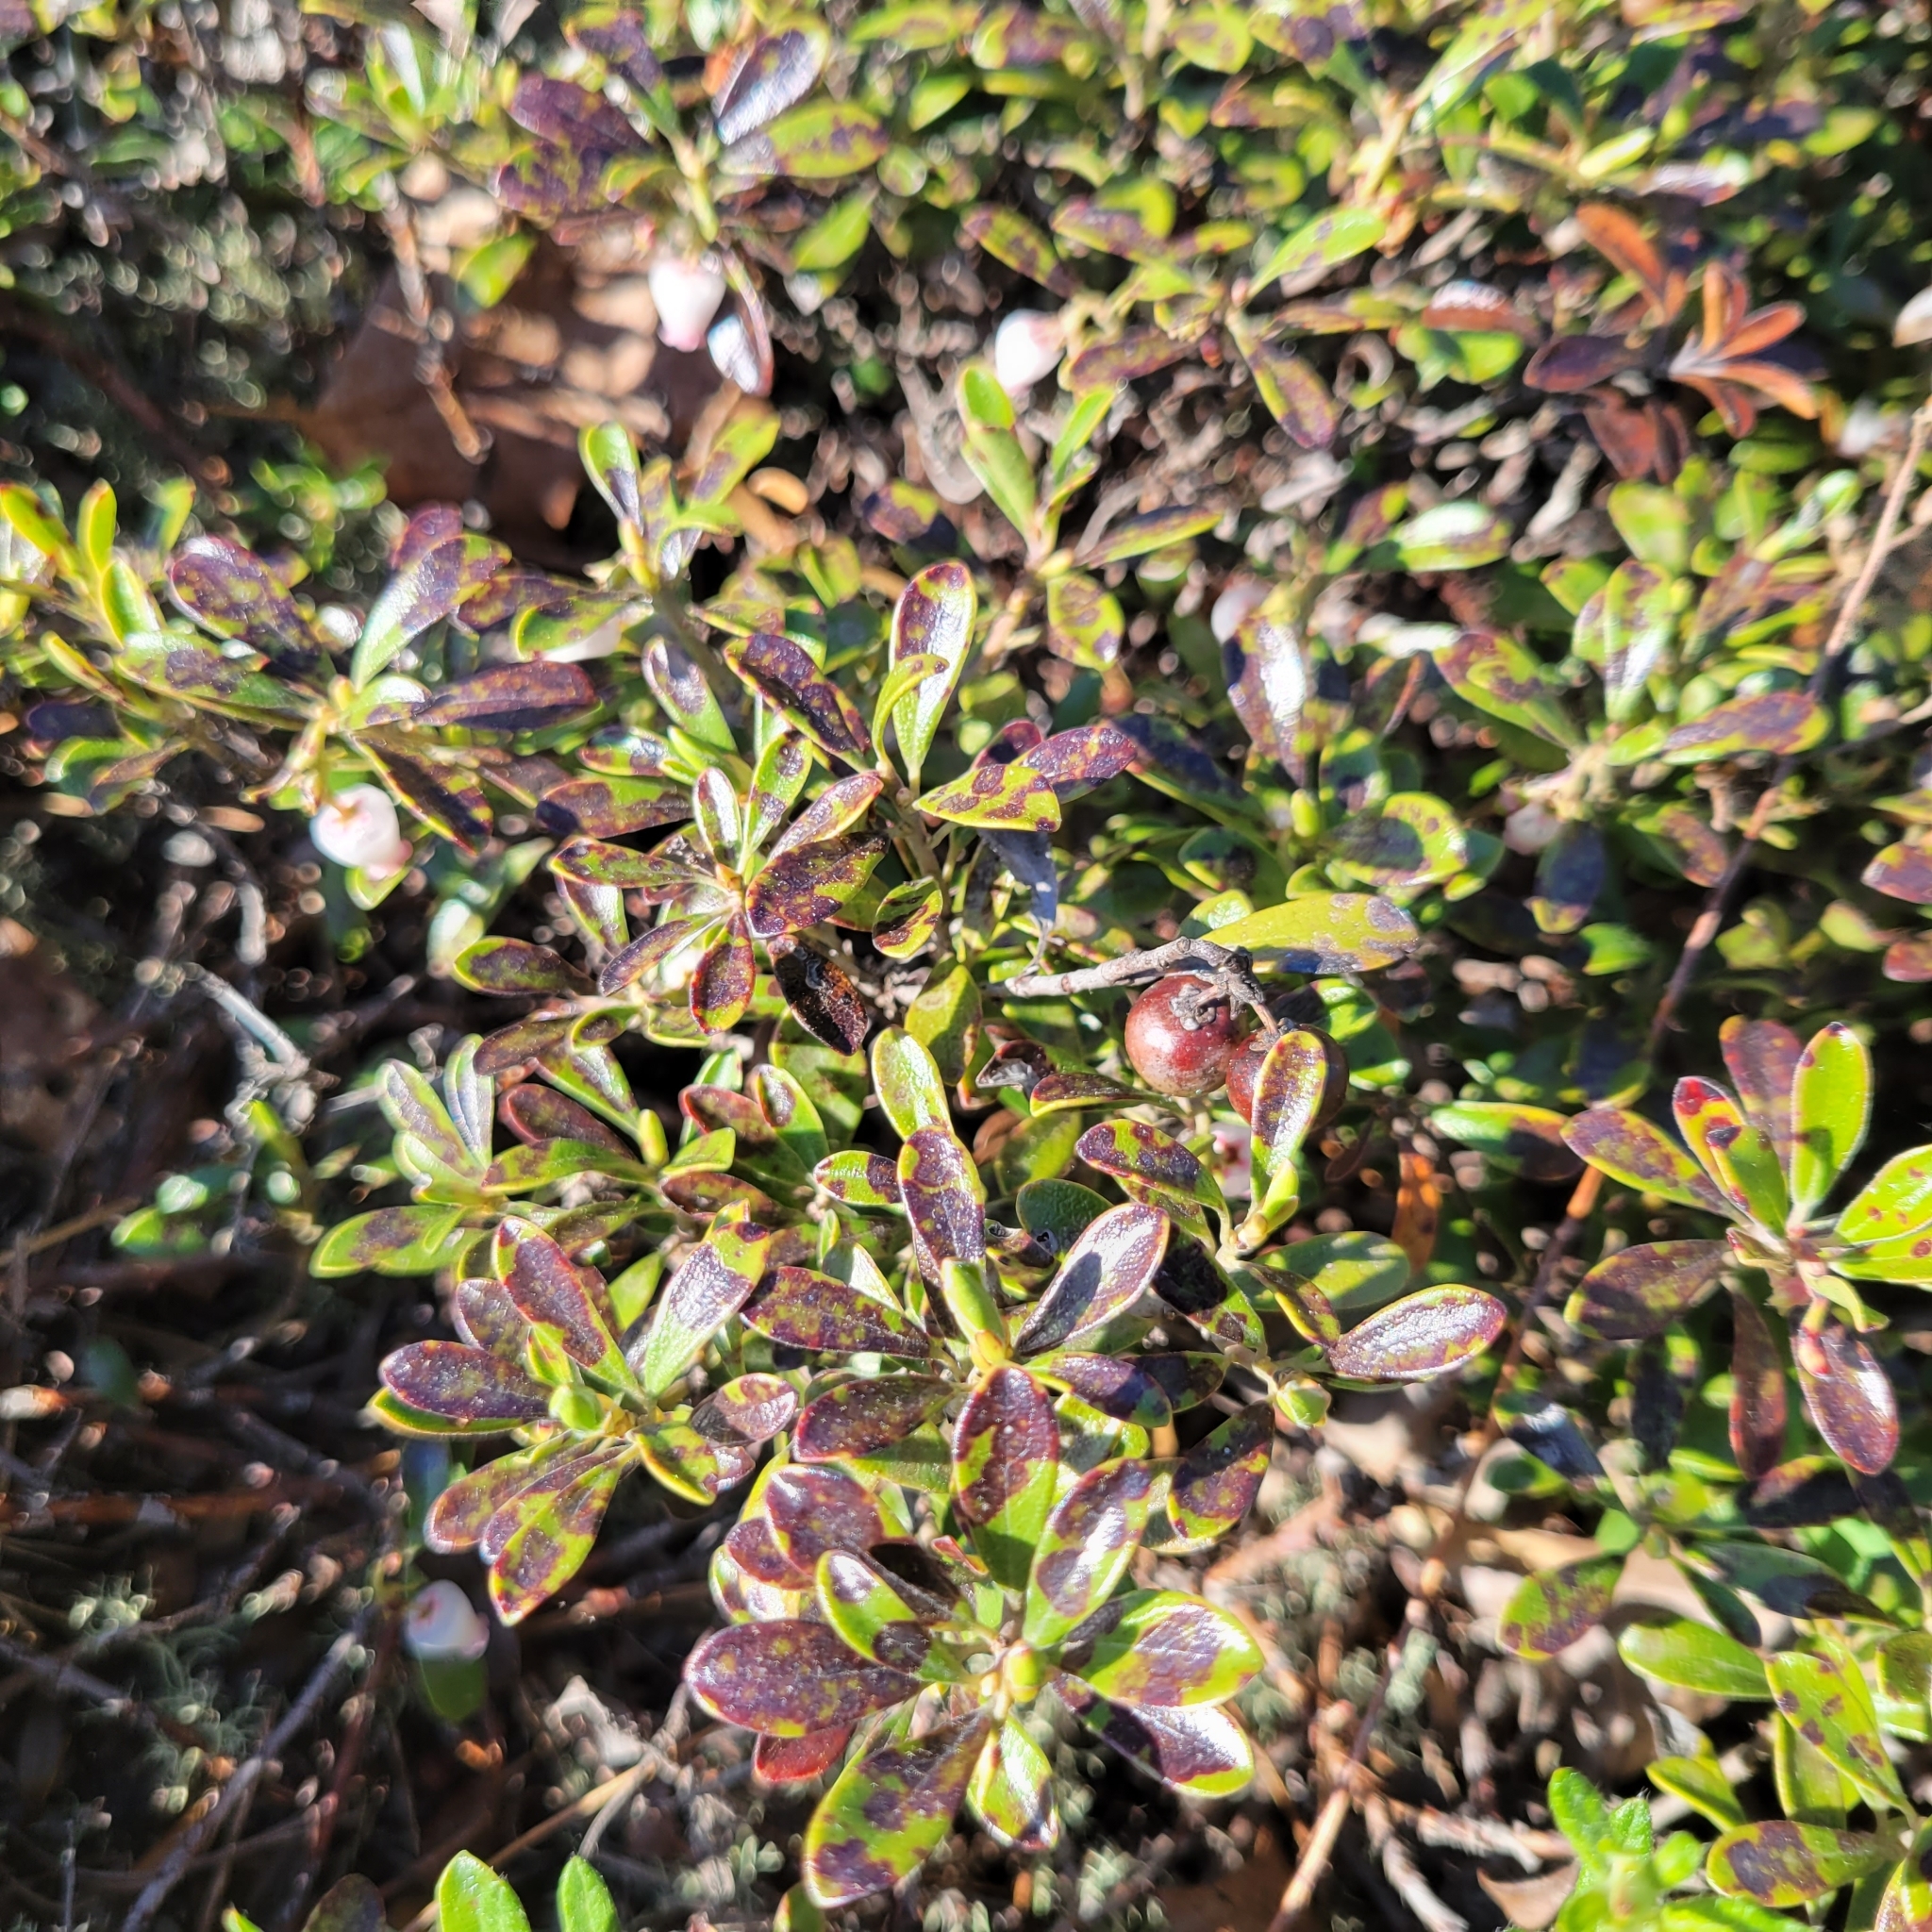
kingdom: Plantae
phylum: Tracheophyta
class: Magnoliopsida
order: Ericales
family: Ericaceae
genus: Arctostaphylos
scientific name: Arctostaphylos uva-ursi
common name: Bearberry
